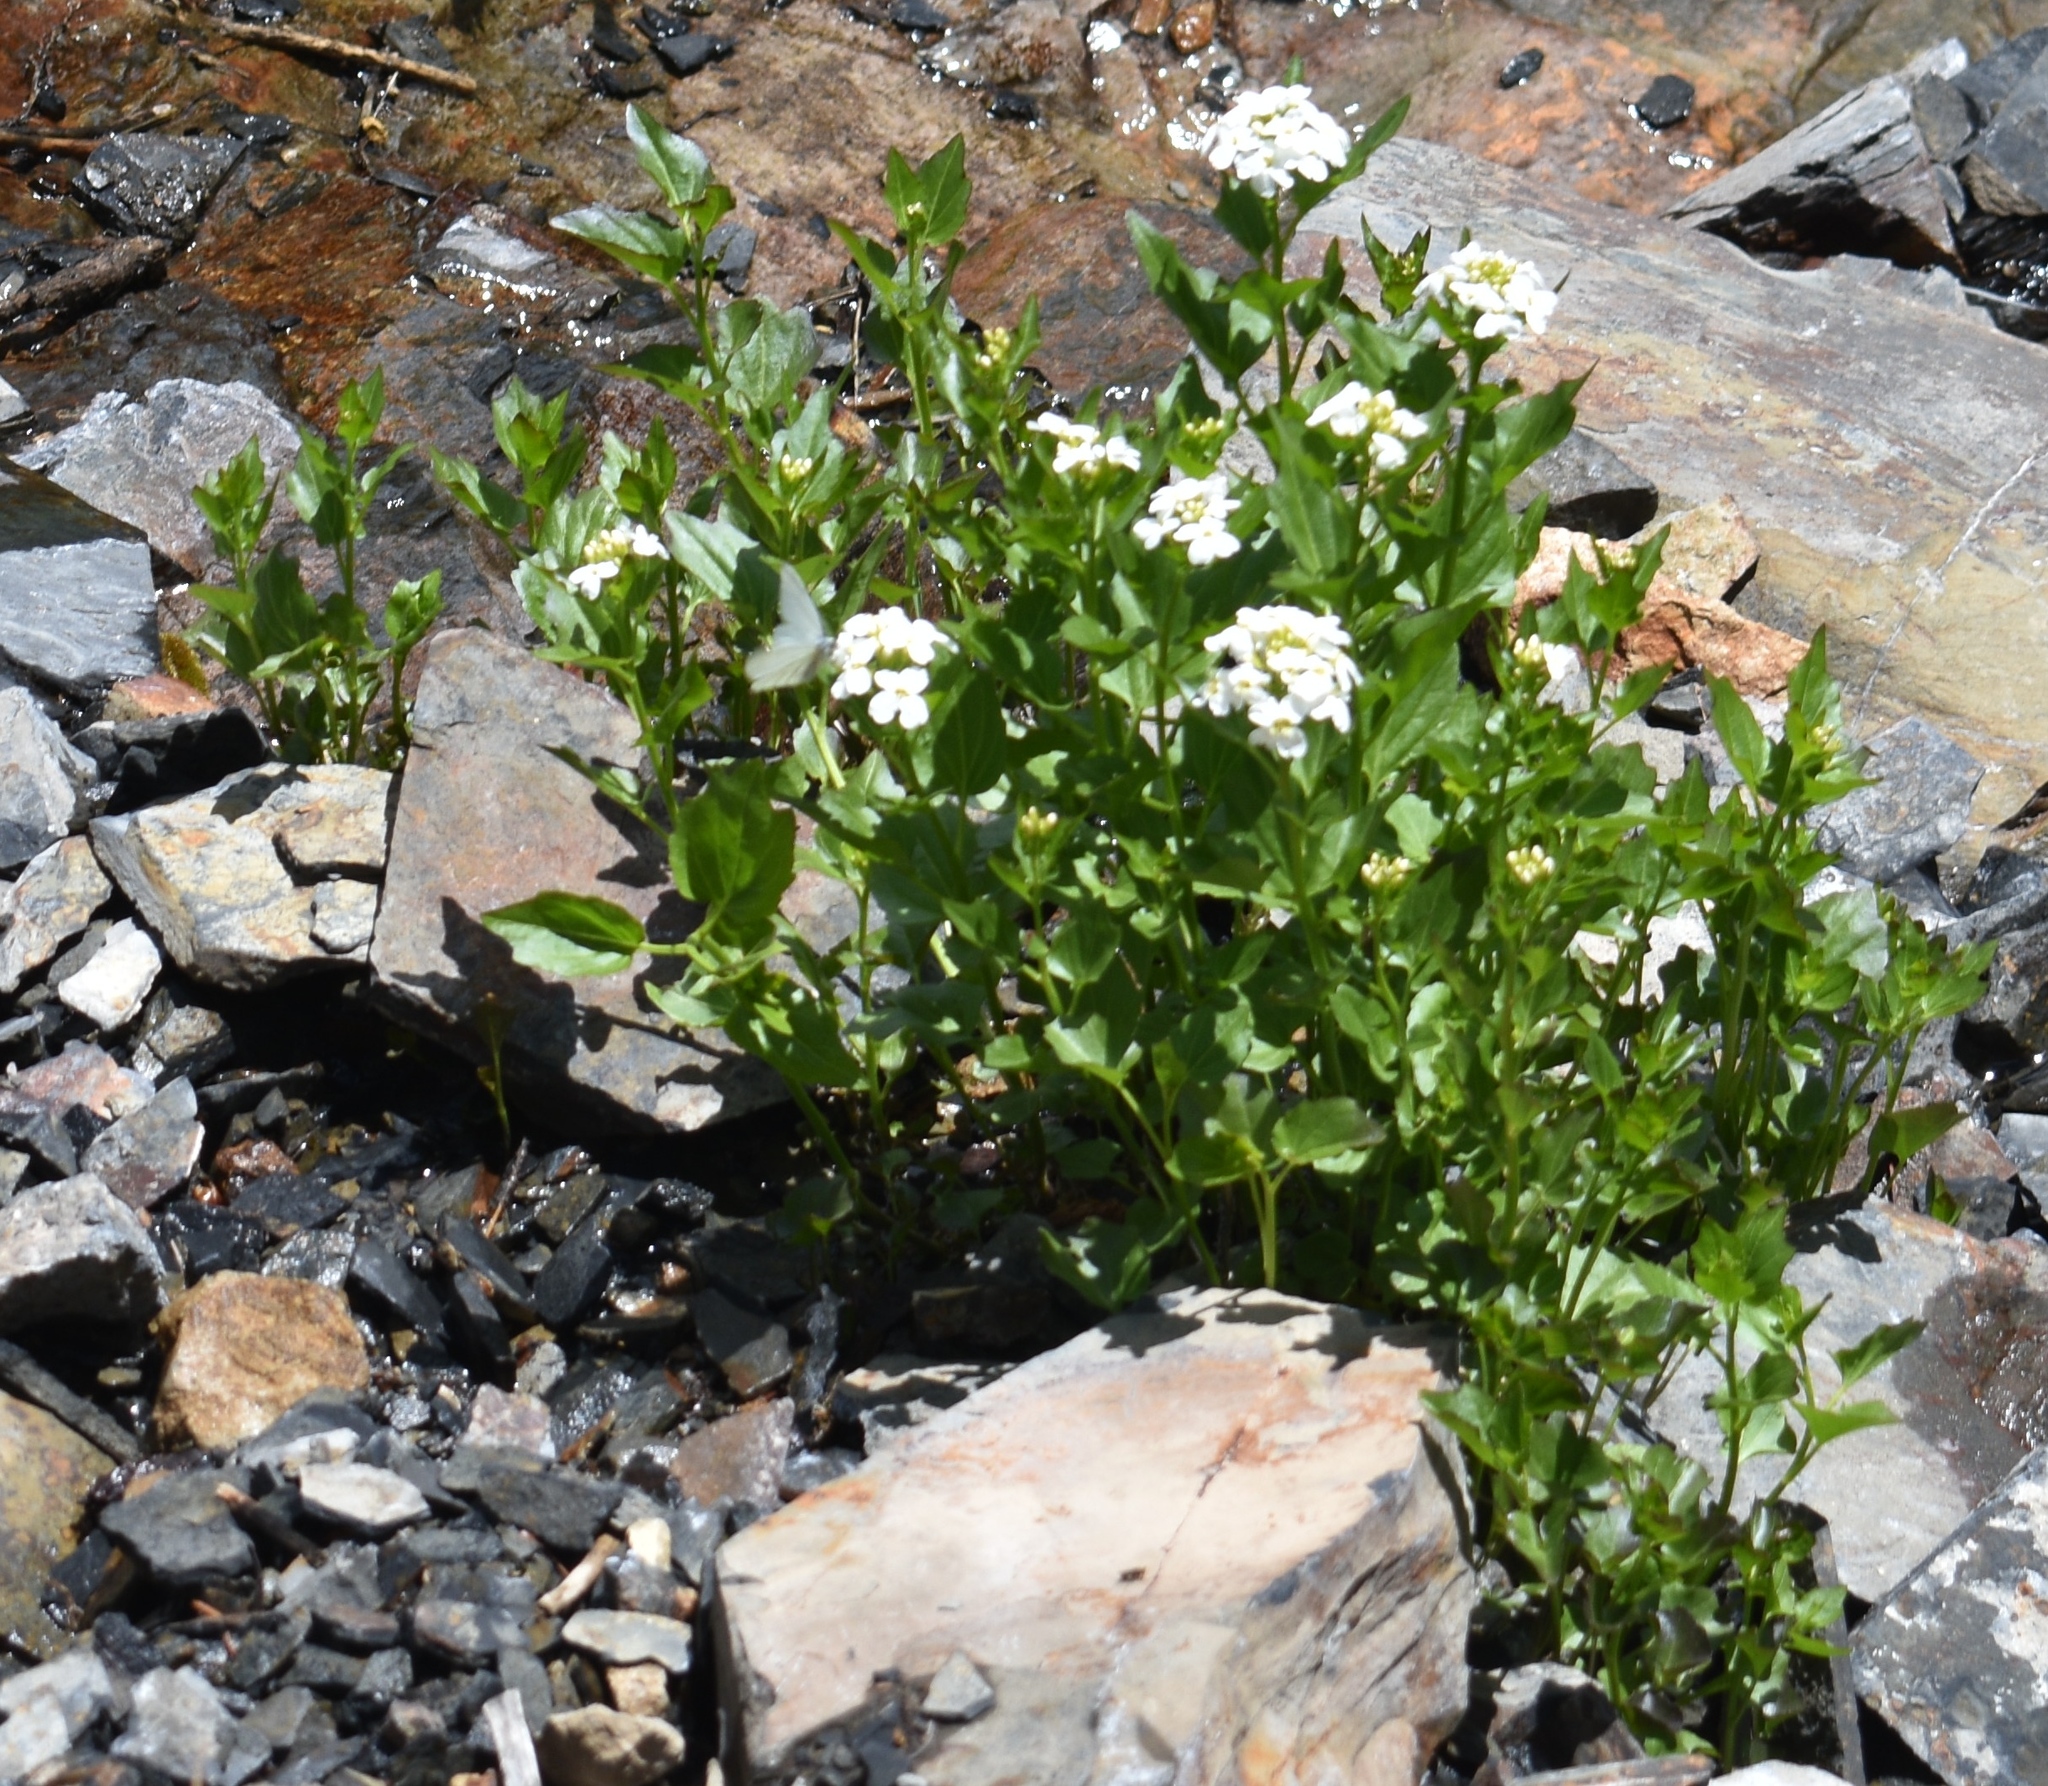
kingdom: Plantae
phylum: Tracheophyta
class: Magnoliopsida
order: Brassicales
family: Brassicaceae
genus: Cardamine
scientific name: Cardamine cordifolia
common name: Heart-leaf bittercress
